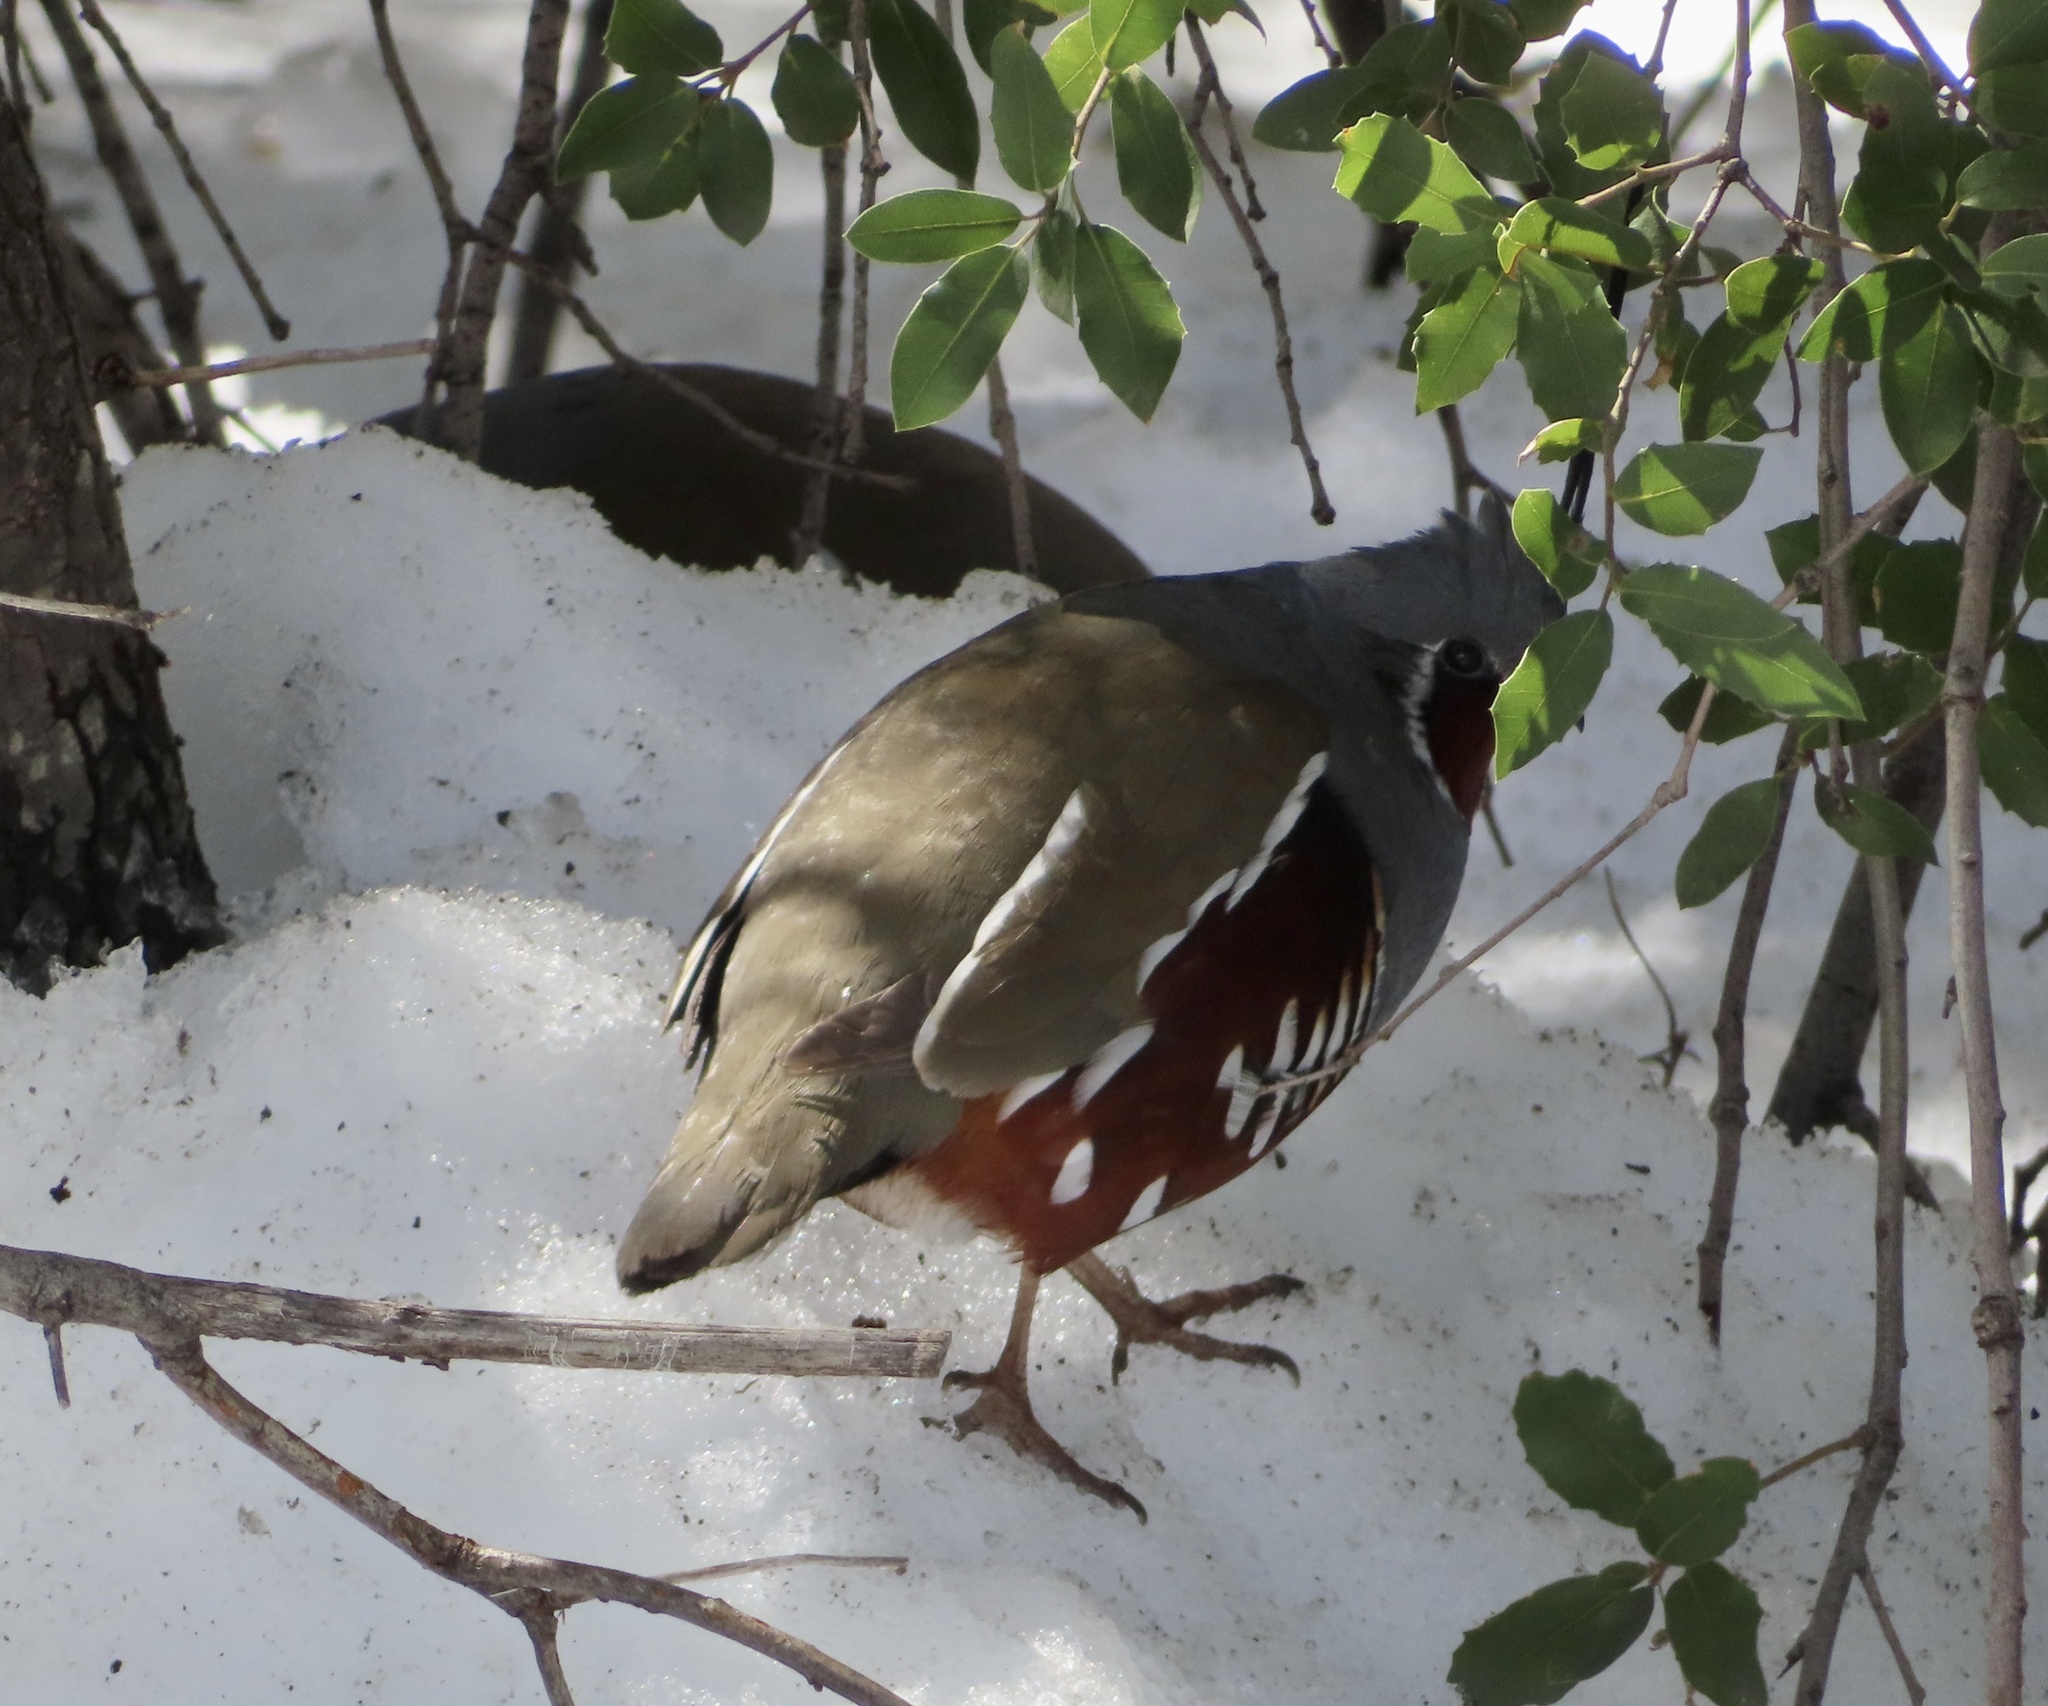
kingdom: Animalia
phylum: Chordata
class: Aves
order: Galliformes
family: Odontophoridae
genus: Oreortyx
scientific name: Oreortyx pictus
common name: Mountain quail
